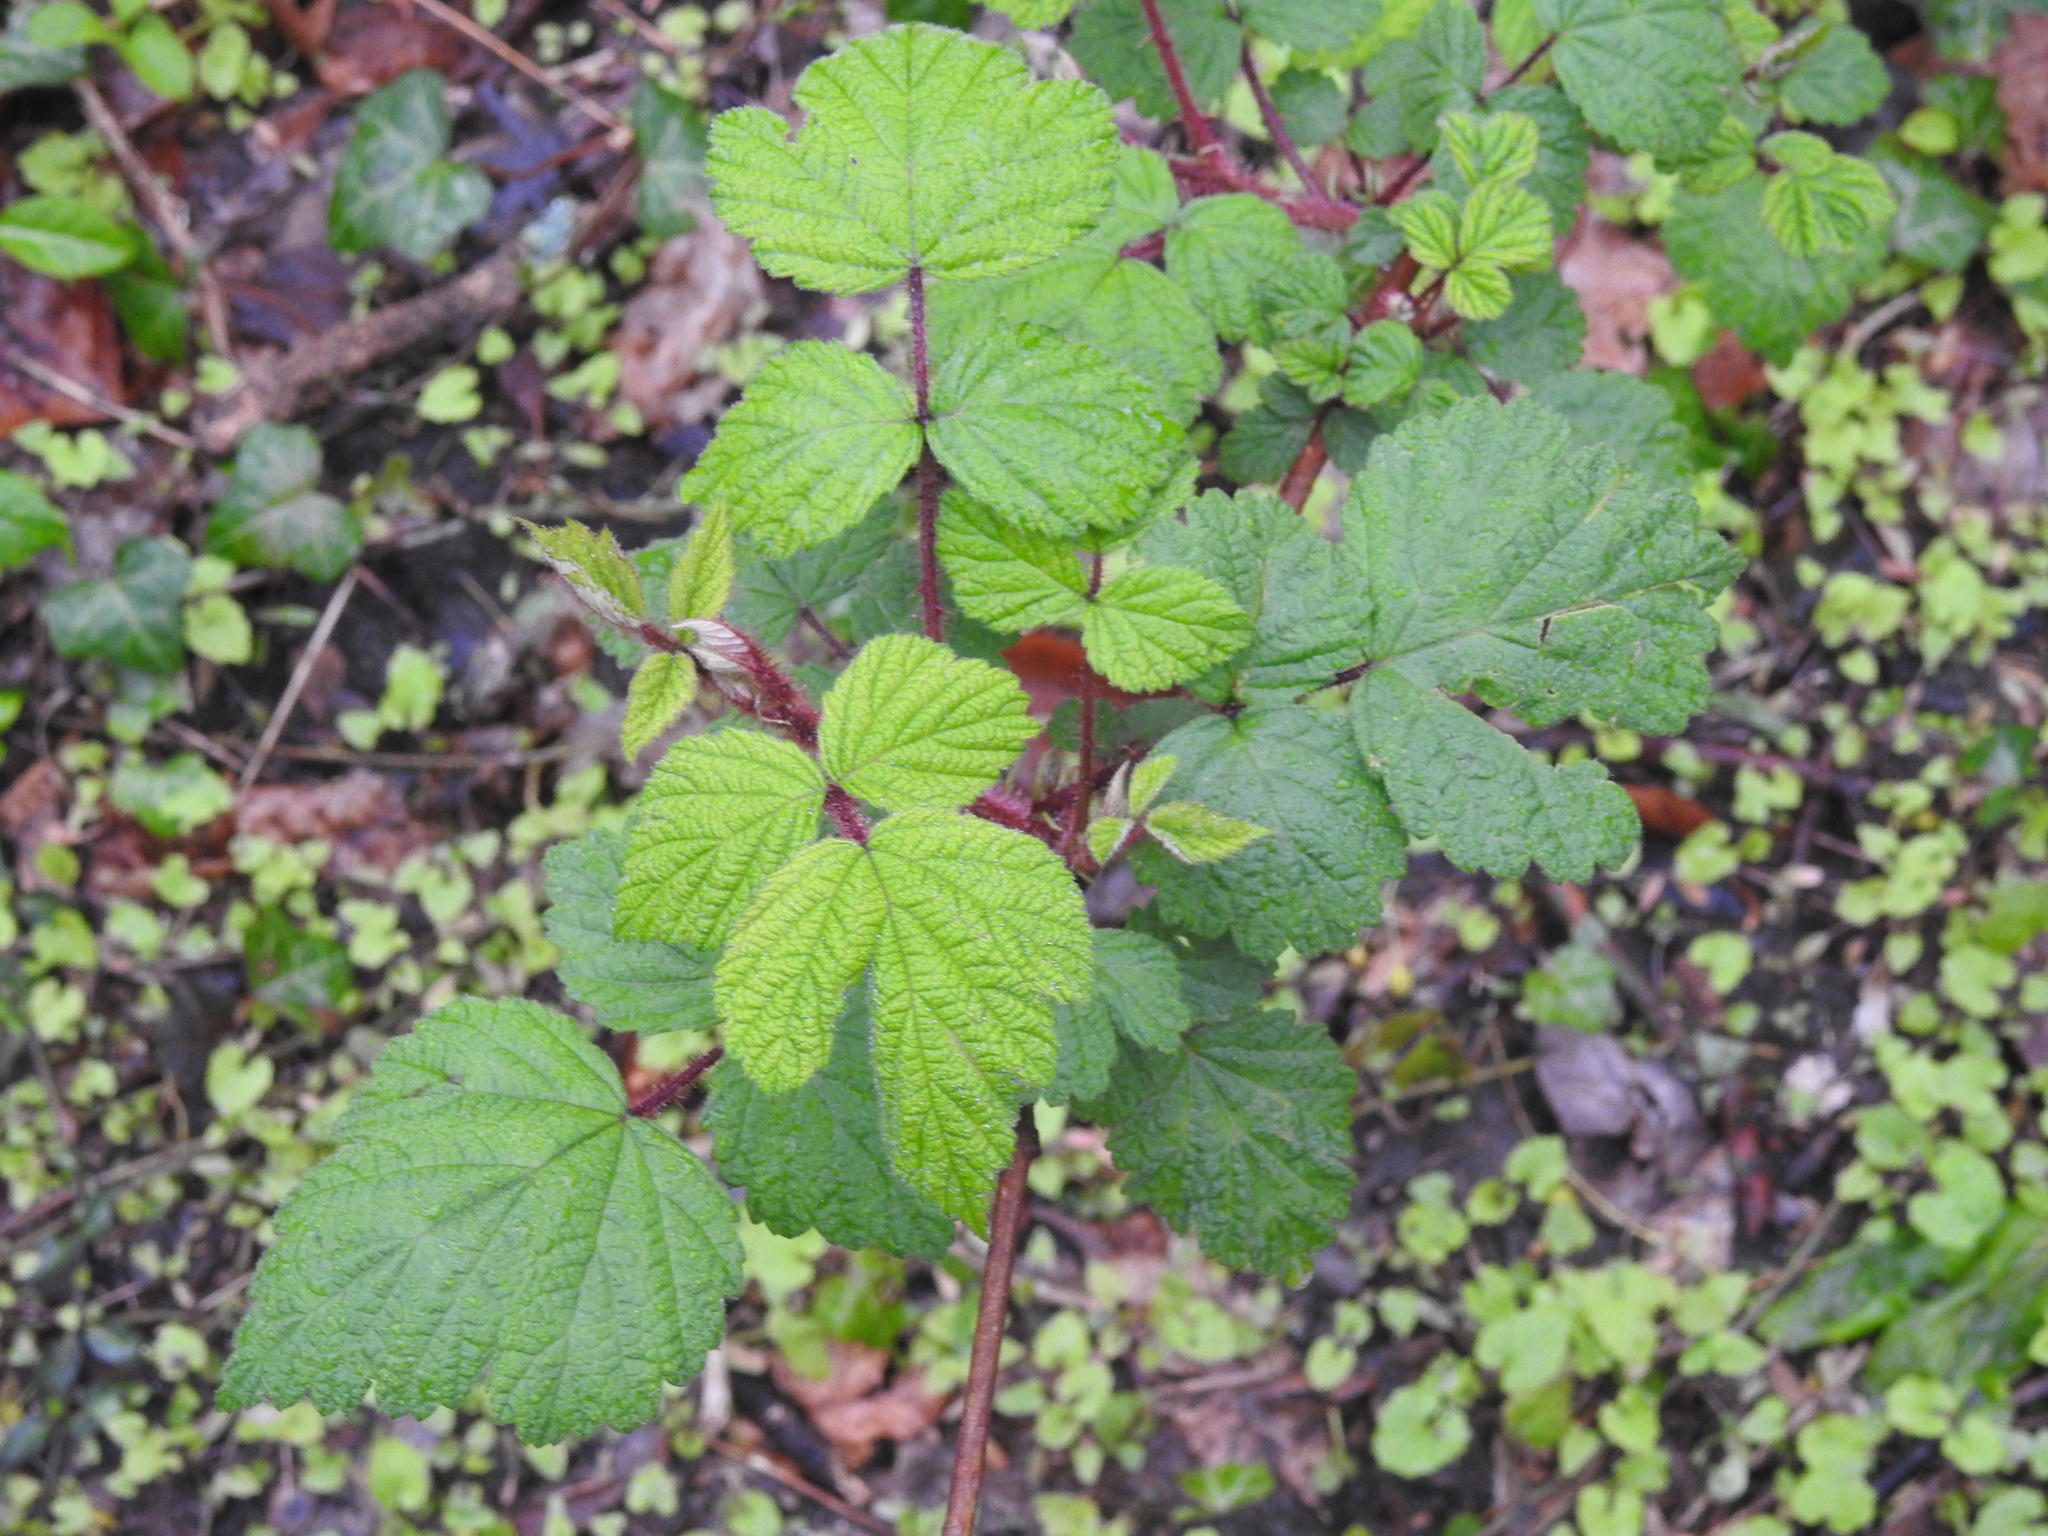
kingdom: Plantae
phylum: Tracheophyta
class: Magnoliopsida
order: Rosales
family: Rosaceae
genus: Rubus
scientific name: Rubus phoenicolasius
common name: Japanese wineberry
